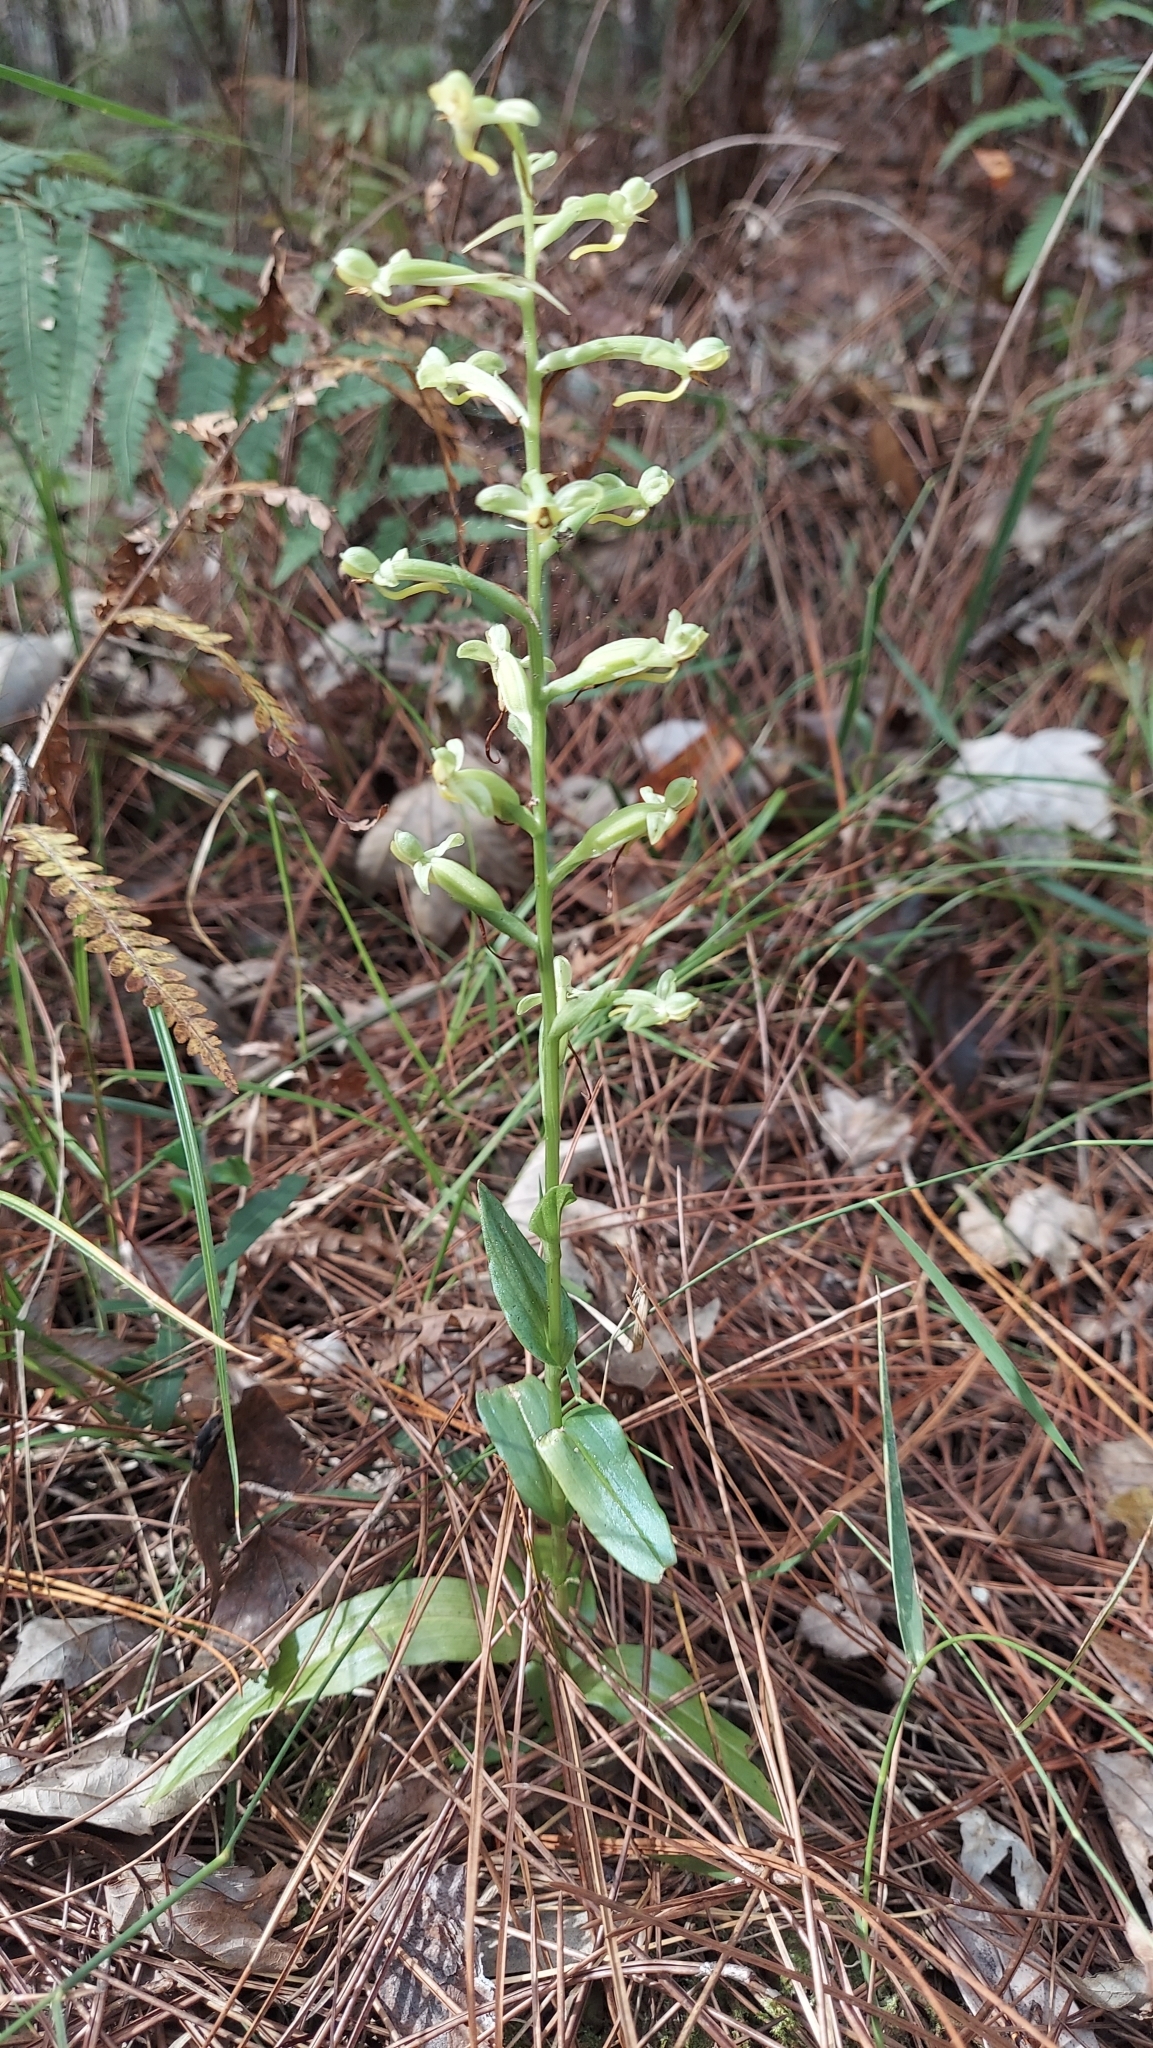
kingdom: Plantae
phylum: Tracheophyta
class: Liliopsida
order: Asparagales
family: Orchidaceae
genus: Habenaria
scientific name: Habenaria floribunda
